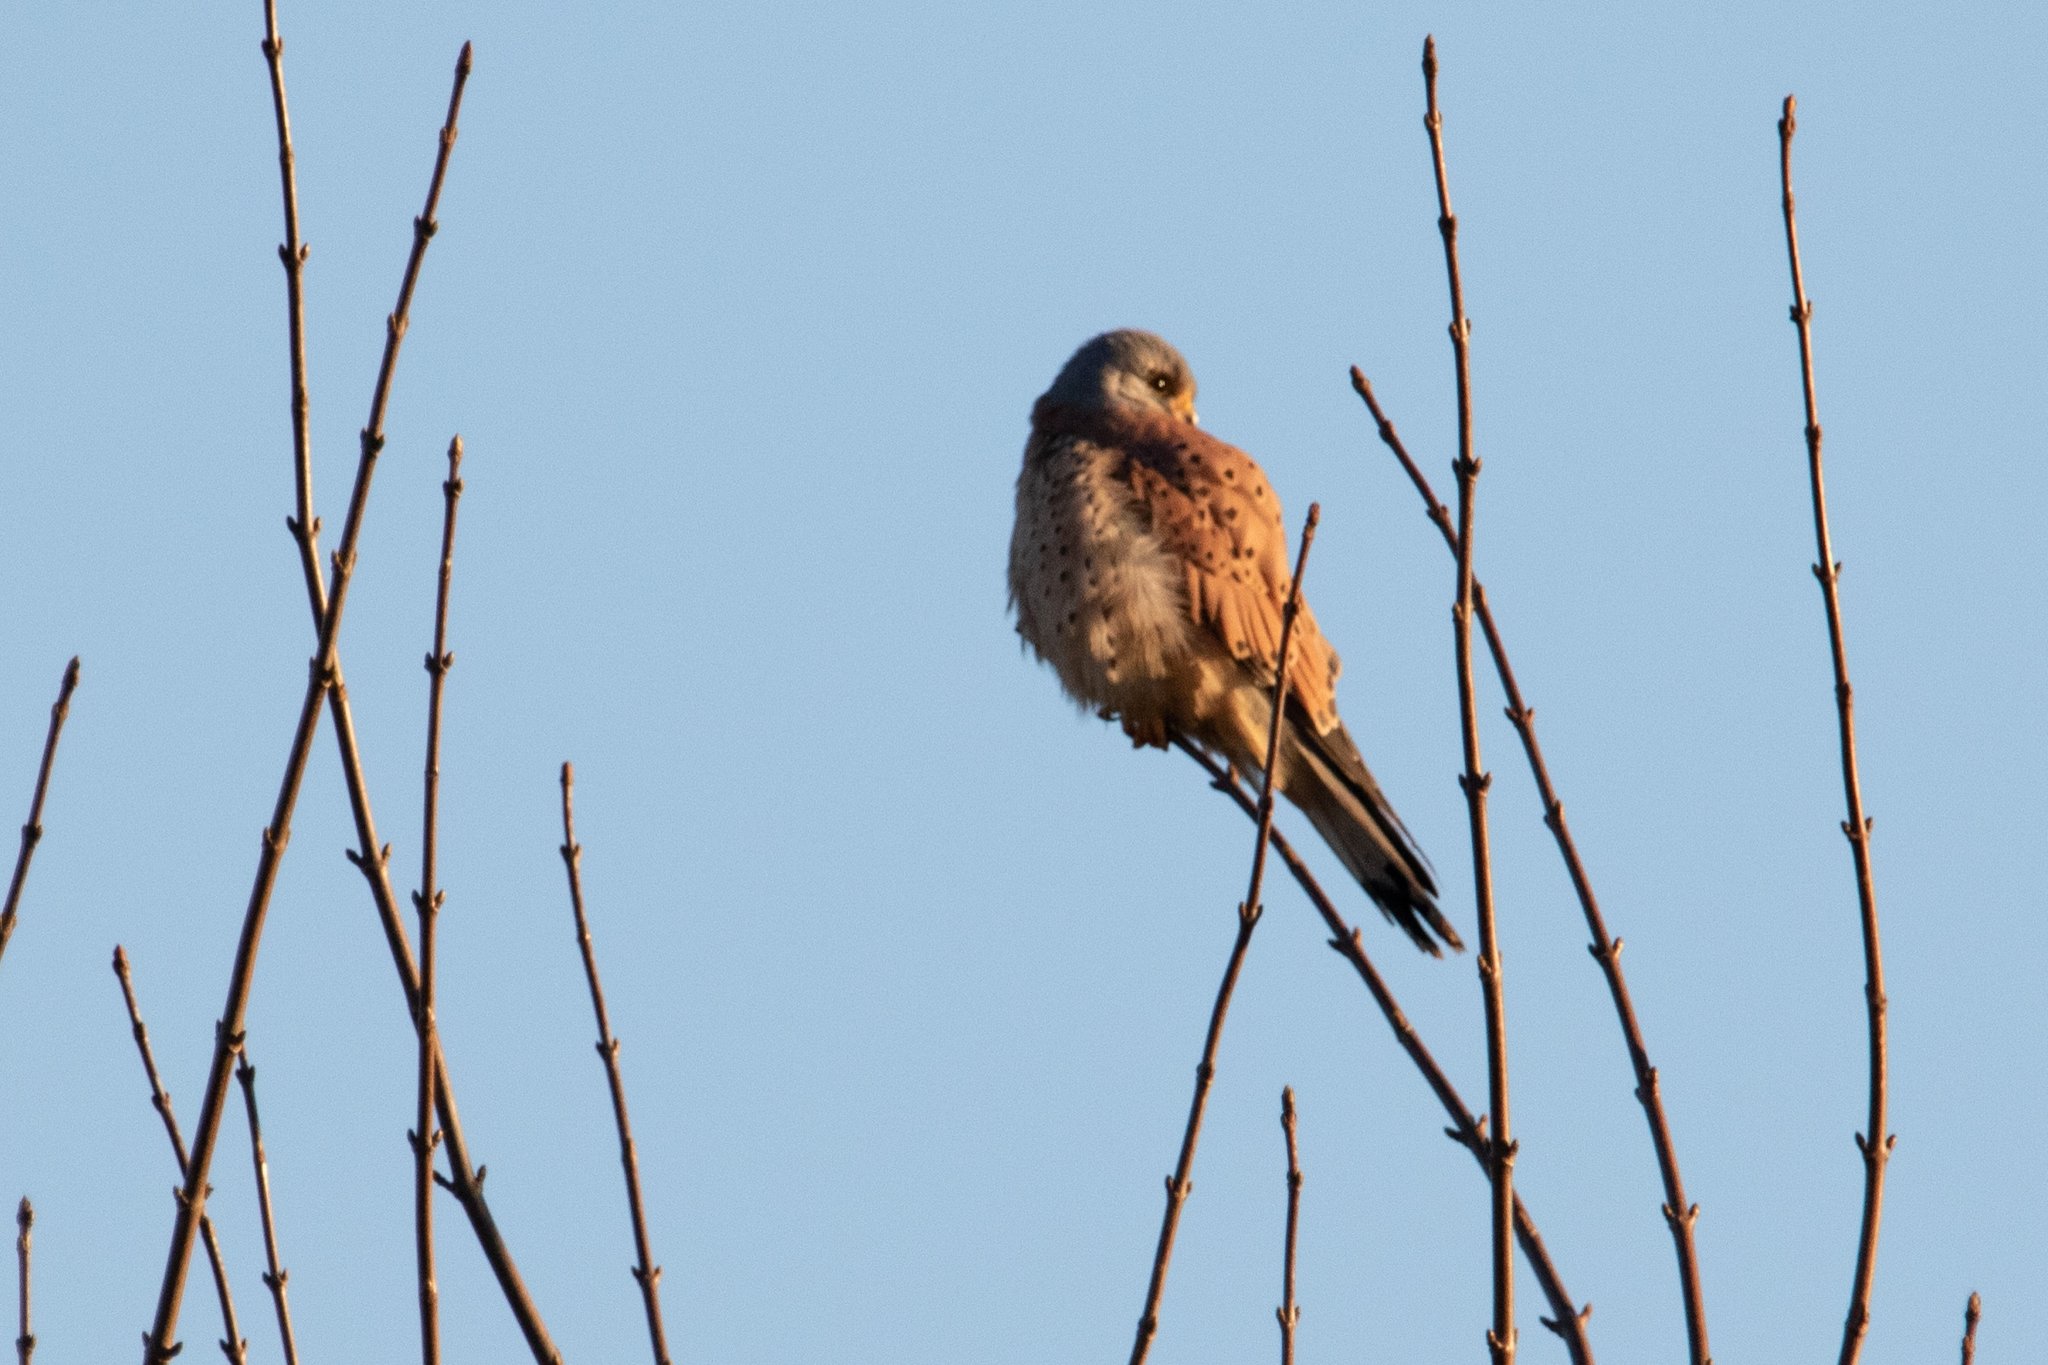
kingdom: Animalia
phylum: Chordata
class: Aves
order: Falconiformes
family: Falconidae
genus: Falco
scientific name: Falco tinnunculus
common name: Common kestrel
